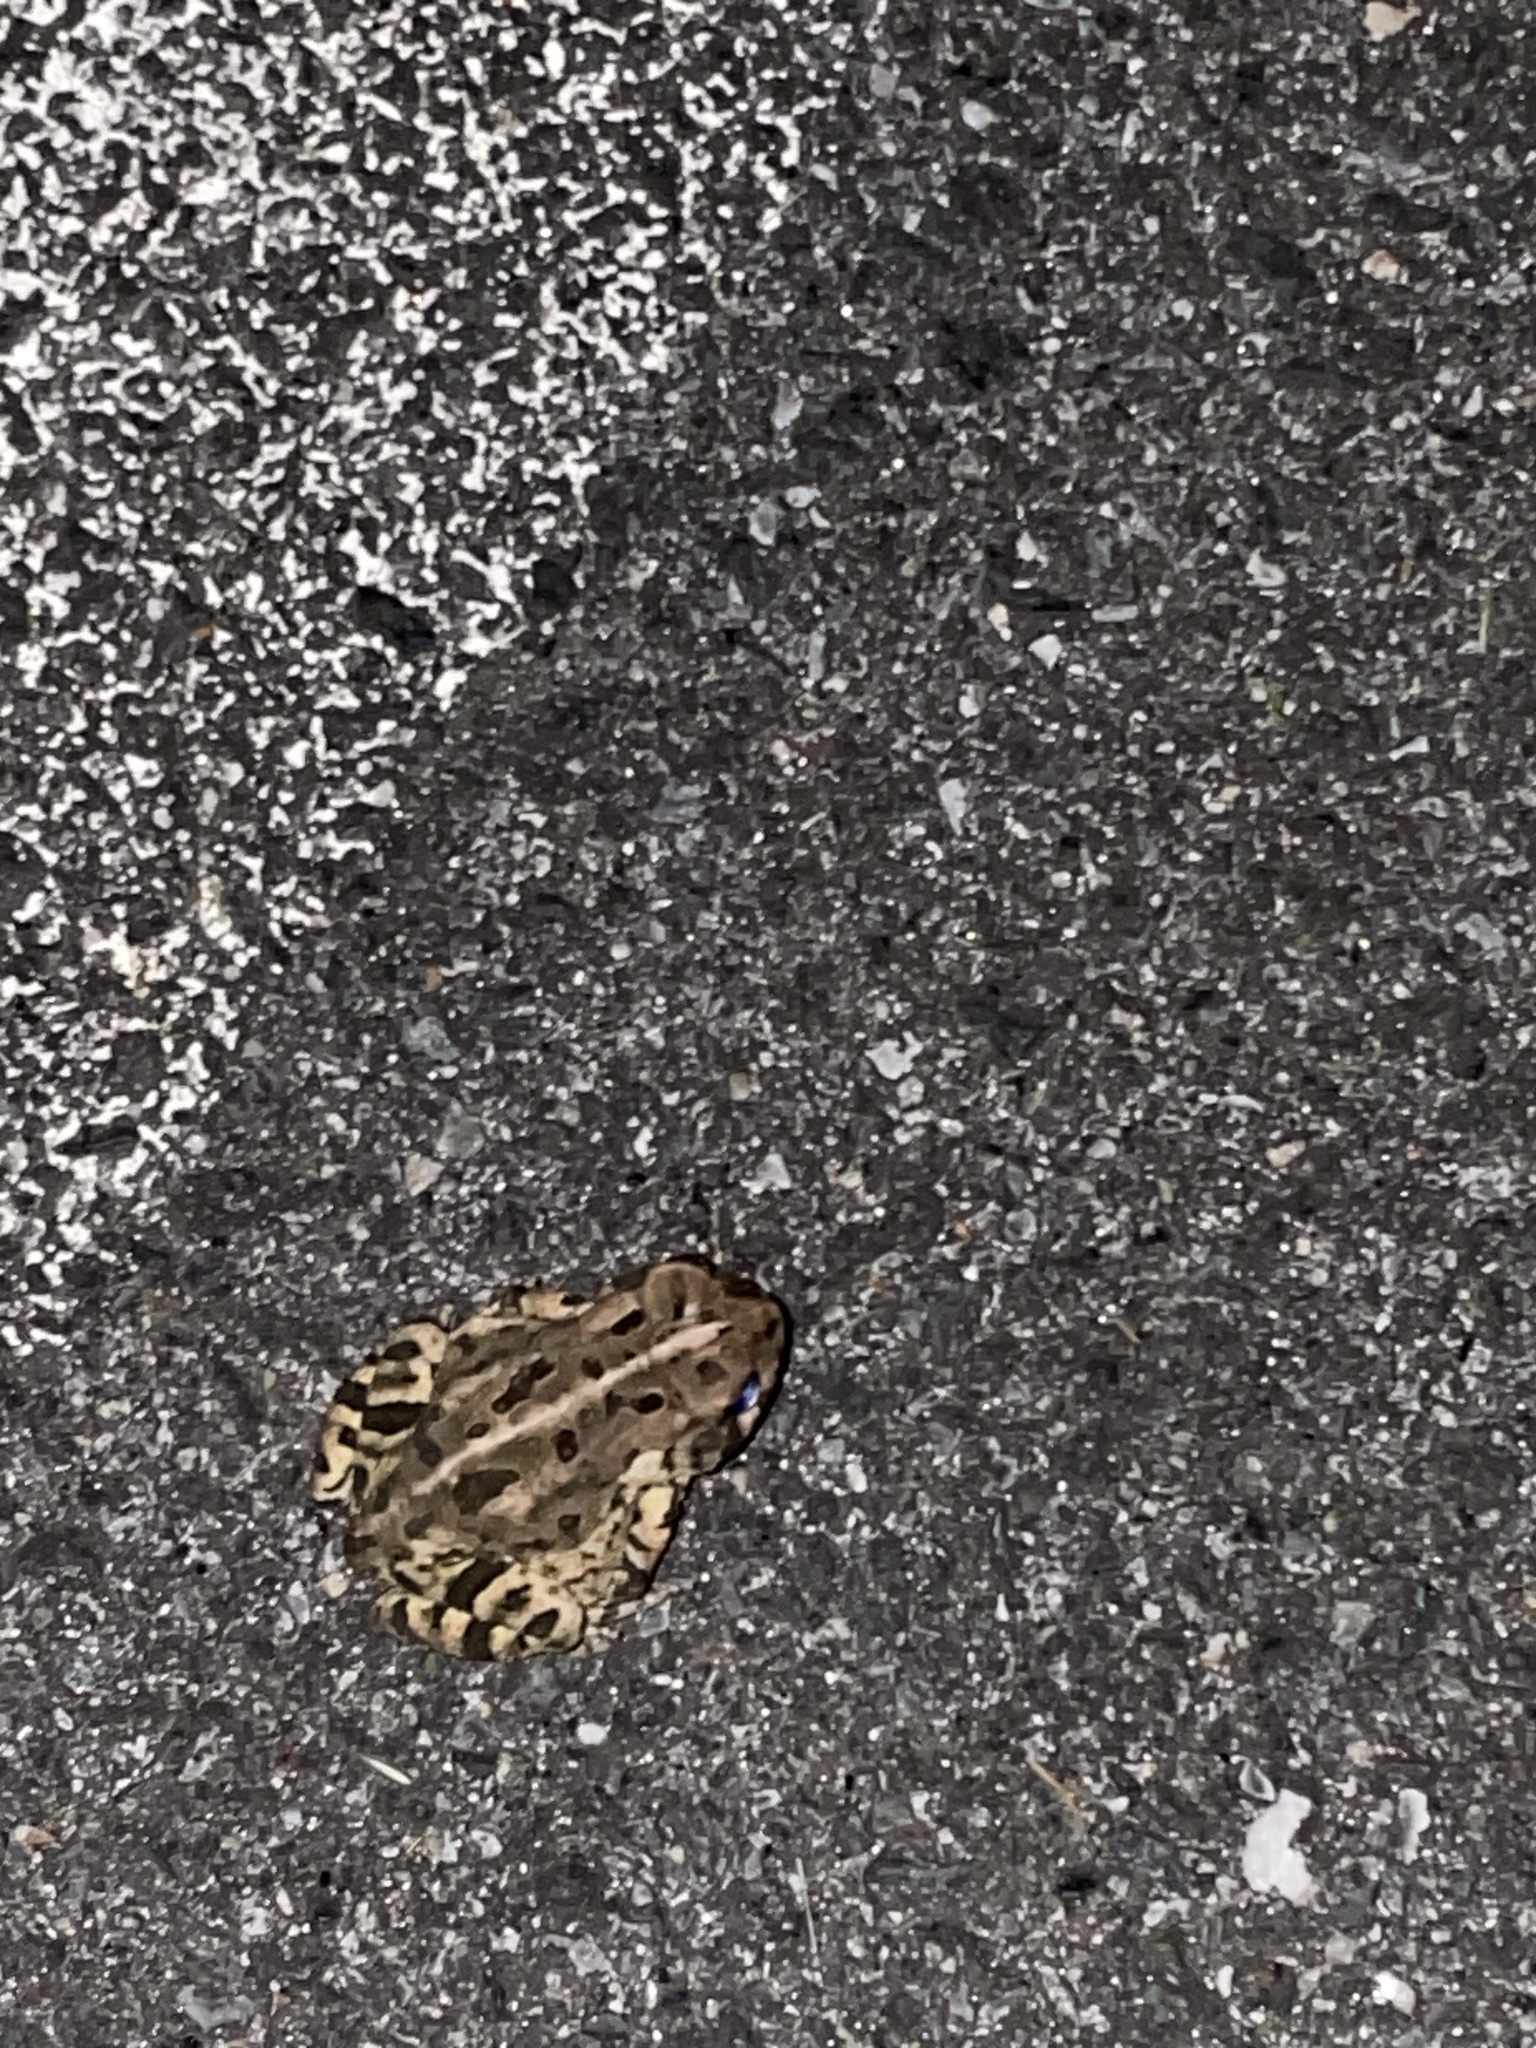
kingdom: Animalia
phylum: Chordata
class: Amphibia
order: Anura
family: Bufonidae
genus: Anaxyrus
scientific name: Anaxyrus fowleri
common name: Fowler's toad
